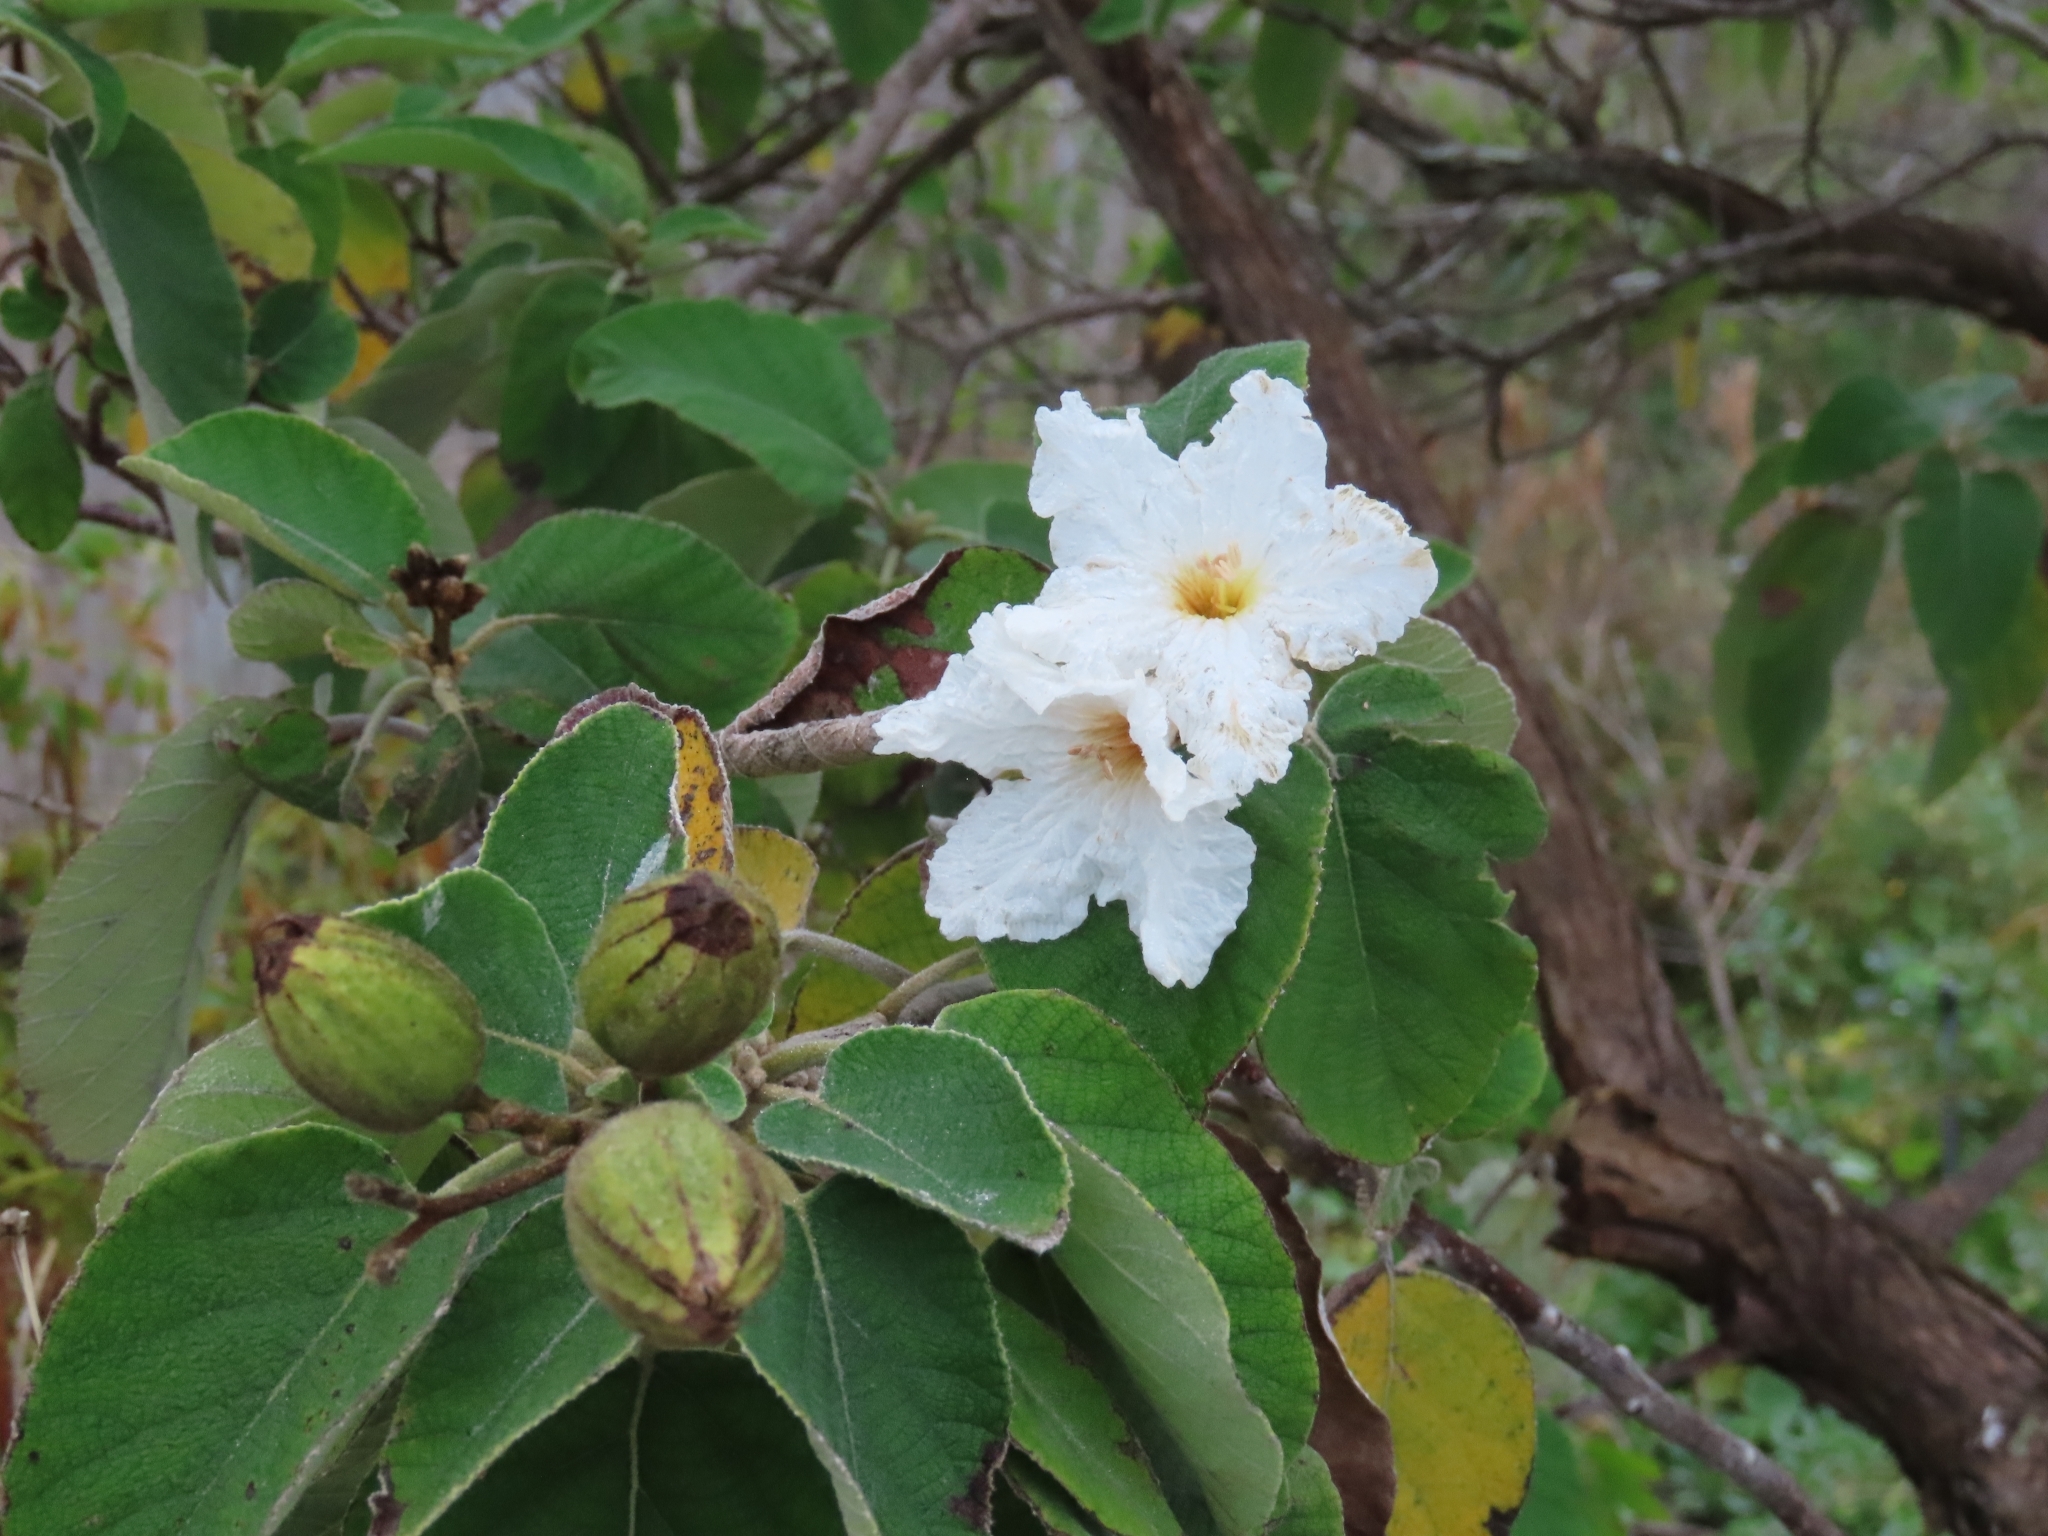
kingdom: Plantae
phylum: Tracheophyta
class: Magnoliopsida
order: Boraginales
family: Cordiaceae
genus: Cordia
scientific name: Cordia boissieri
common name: Mexican-olive
